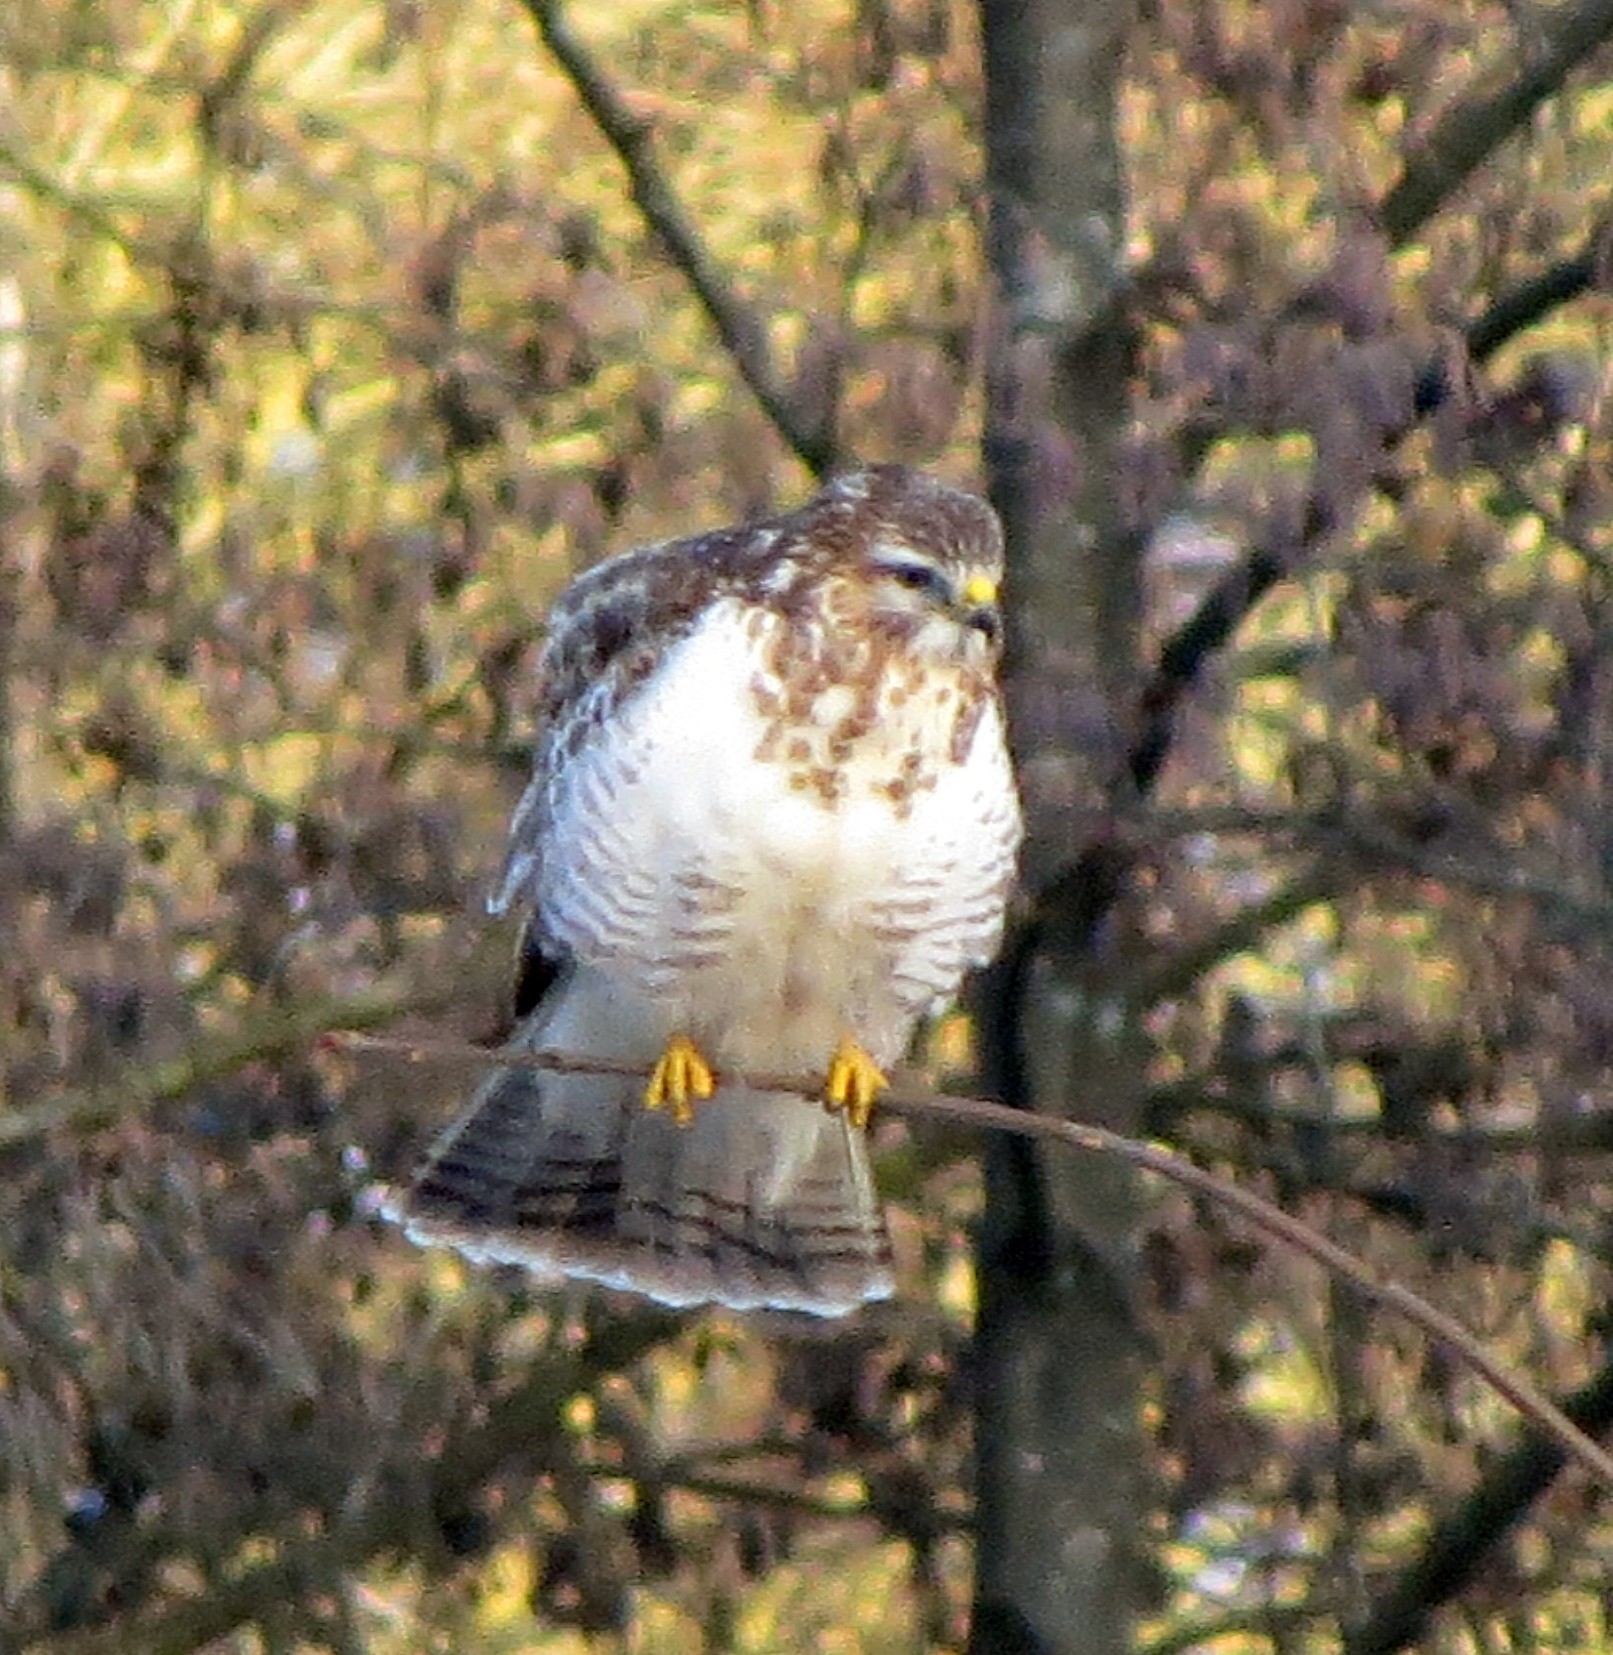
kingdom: Animalia
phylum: Chordata
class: Aves
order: Accipitriformes
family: Accipitridae
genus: Buteo
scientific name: Buteo buteo
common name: Common buzzard
